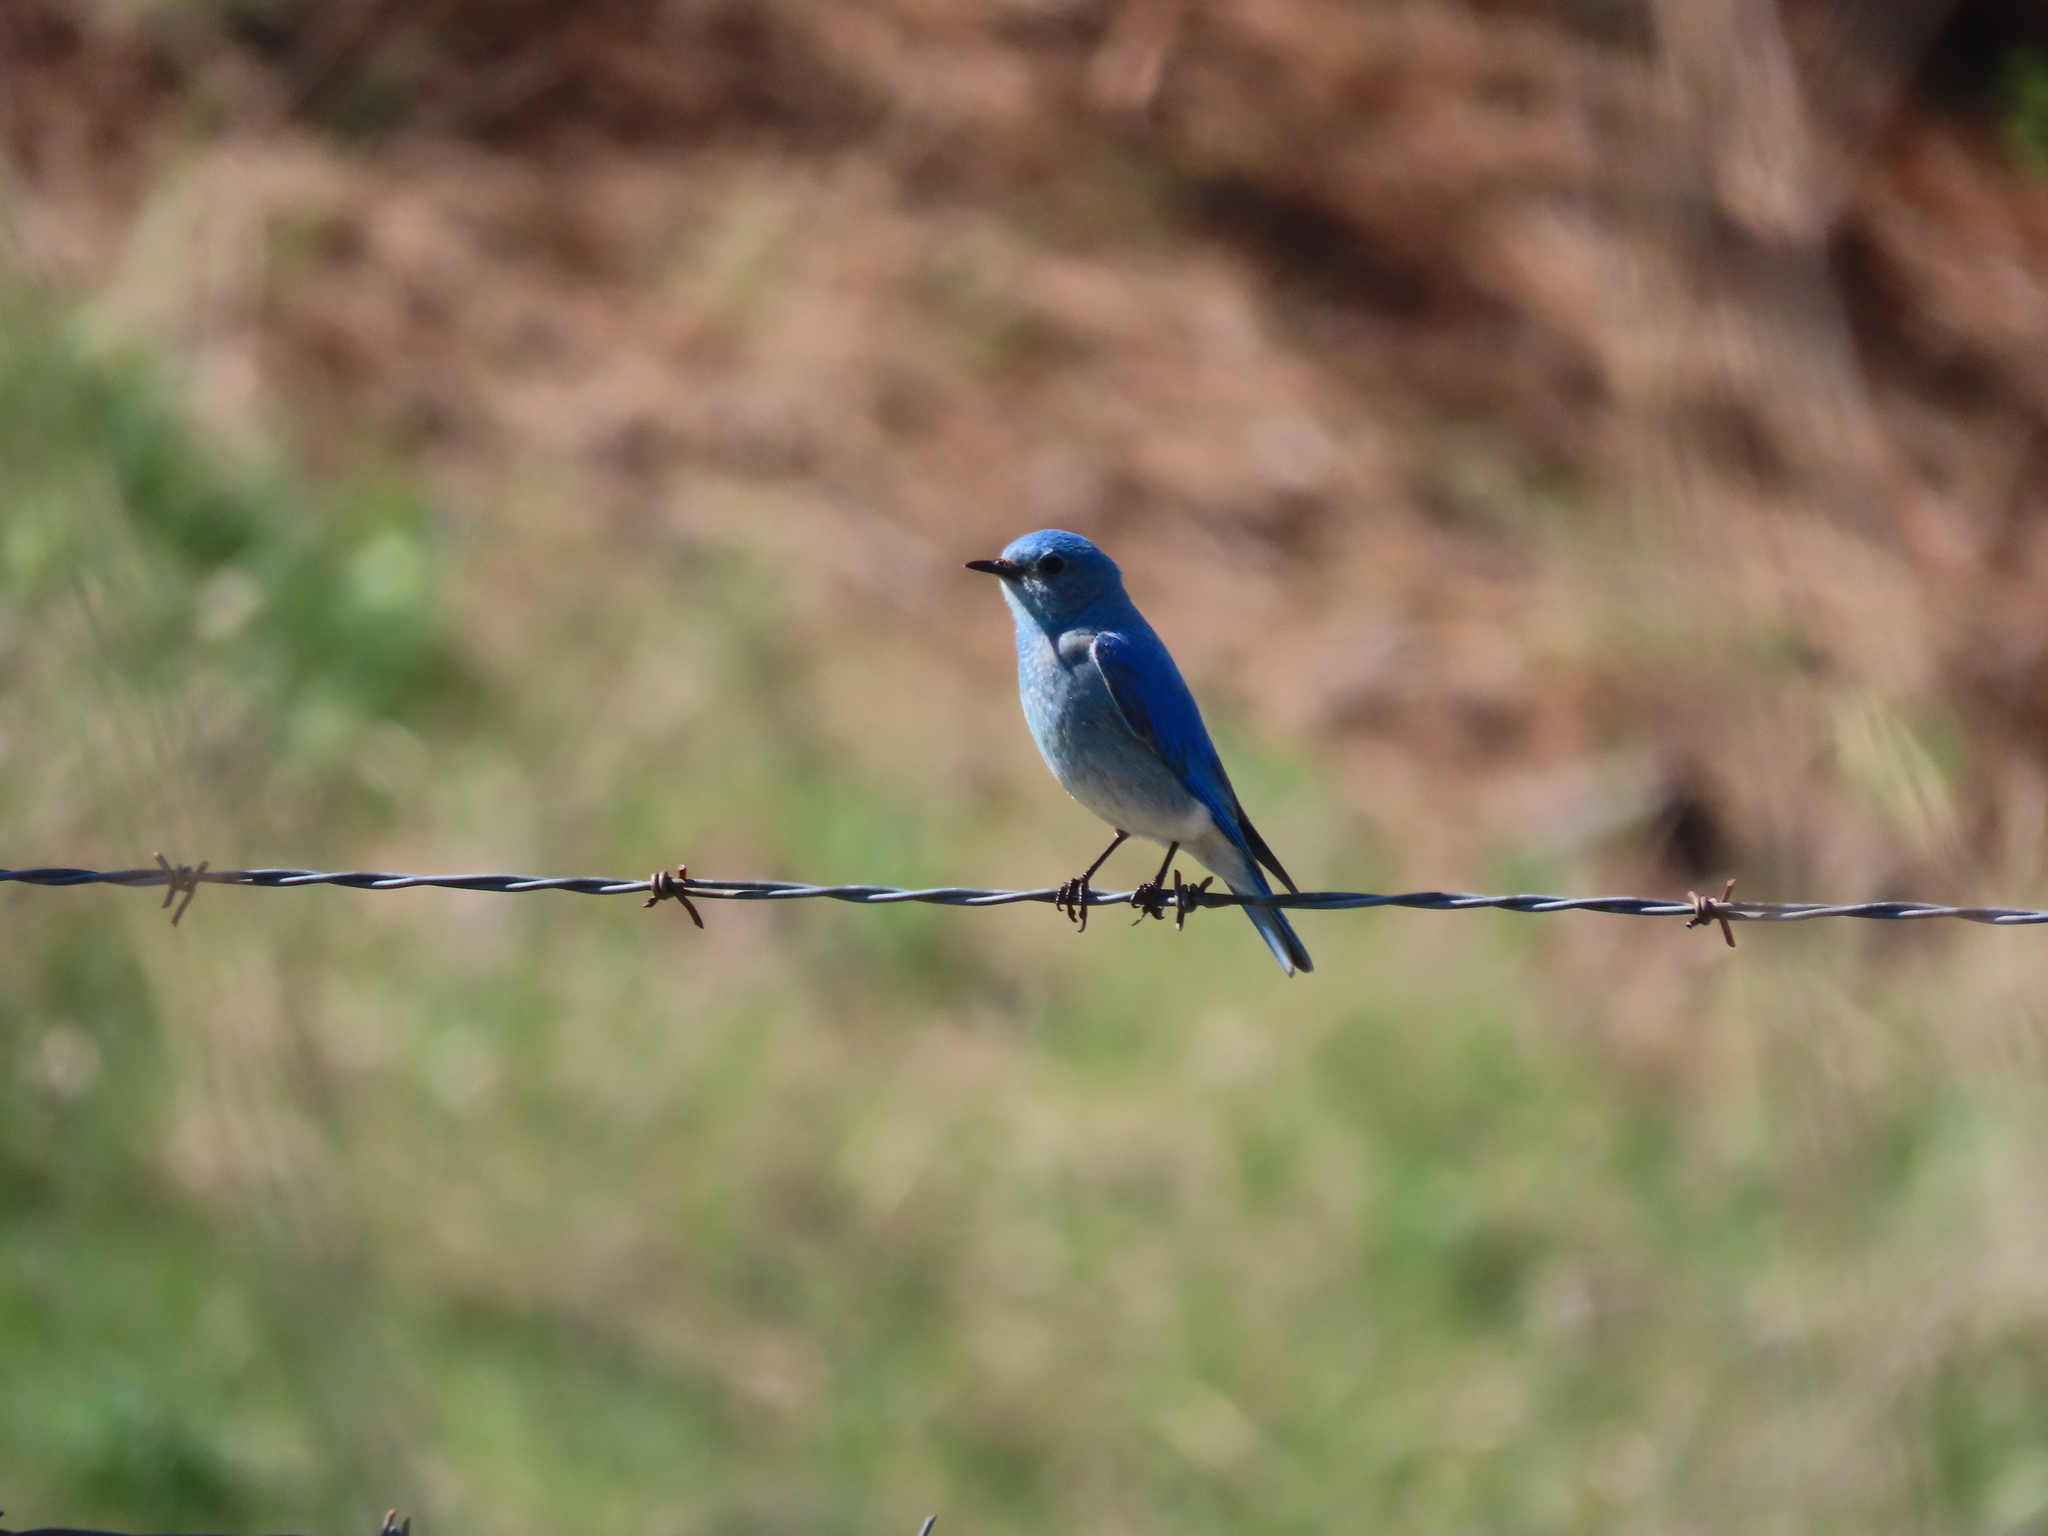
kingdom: Animalia
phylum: Chordata
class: Aves
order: Passeriformes
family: Turdidae
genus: Sialia
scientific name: Sialia currucoides
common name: Mountain bluebird
